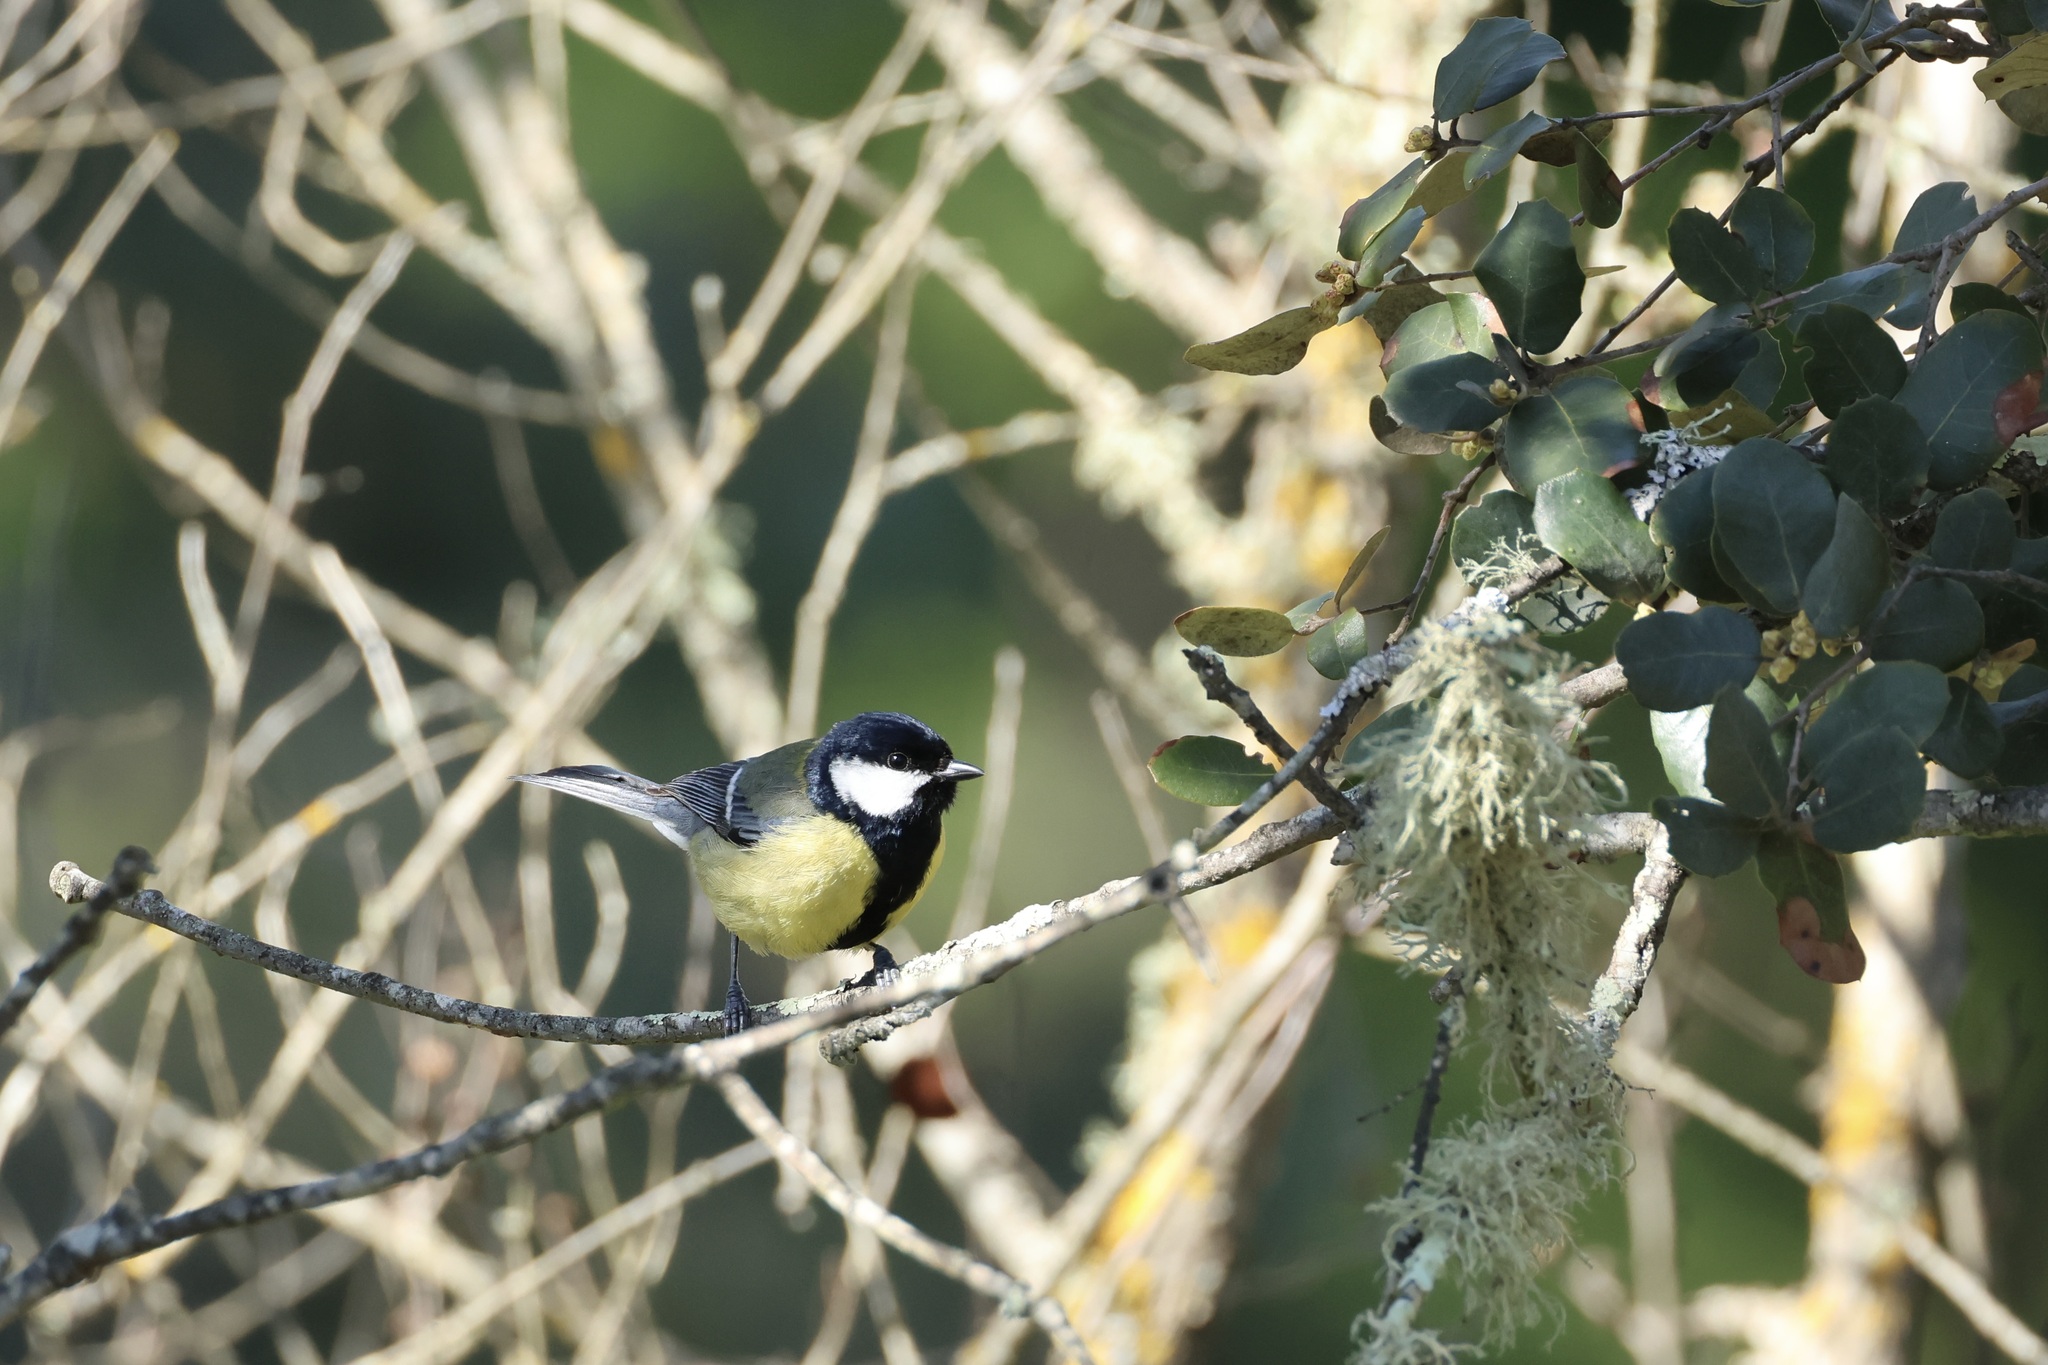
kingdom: Animalia
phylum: Chordata
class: Aves
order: Passeriformes
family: Paridae
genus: Parus
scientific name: Parus major
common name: Great tit
